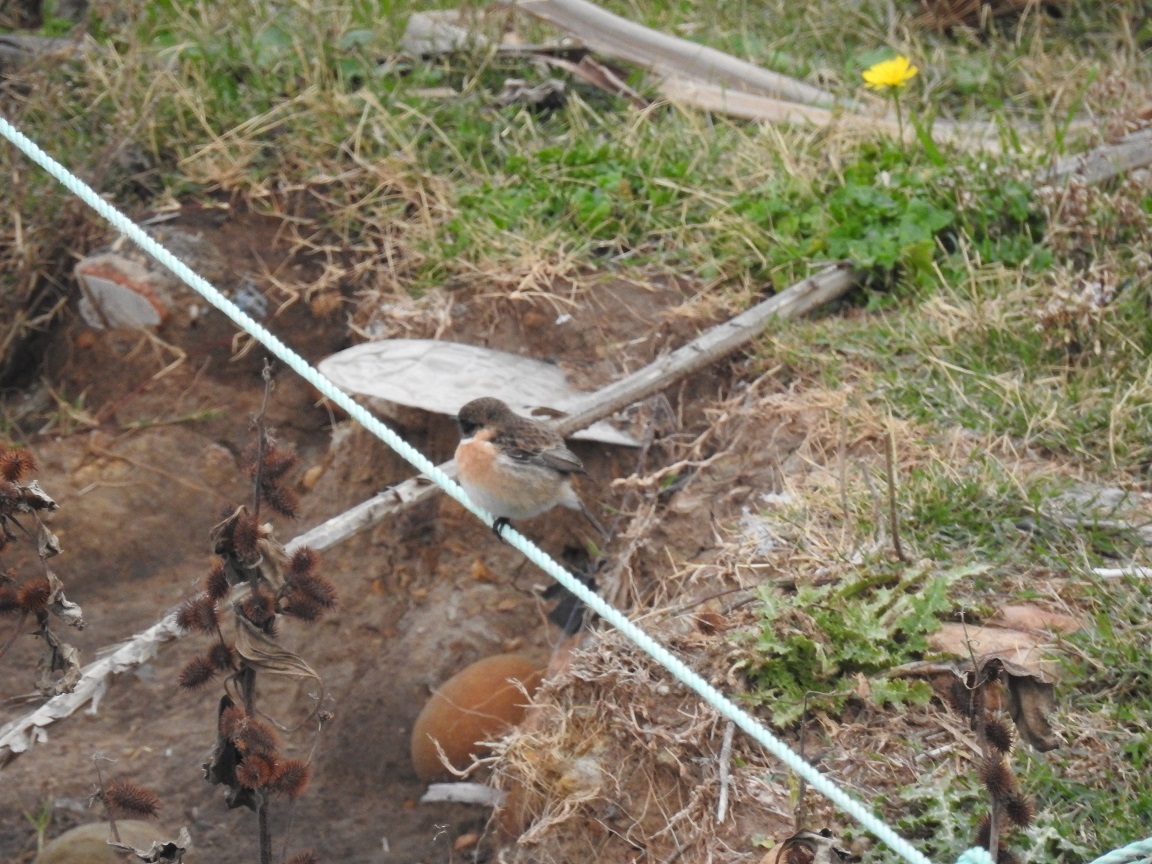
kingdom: Animalia
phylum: Chordata
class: Aves
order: Passeriformes
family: Muscicapidae
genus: Saxicola
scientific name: Saxicola rubicola
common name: European stonechat
